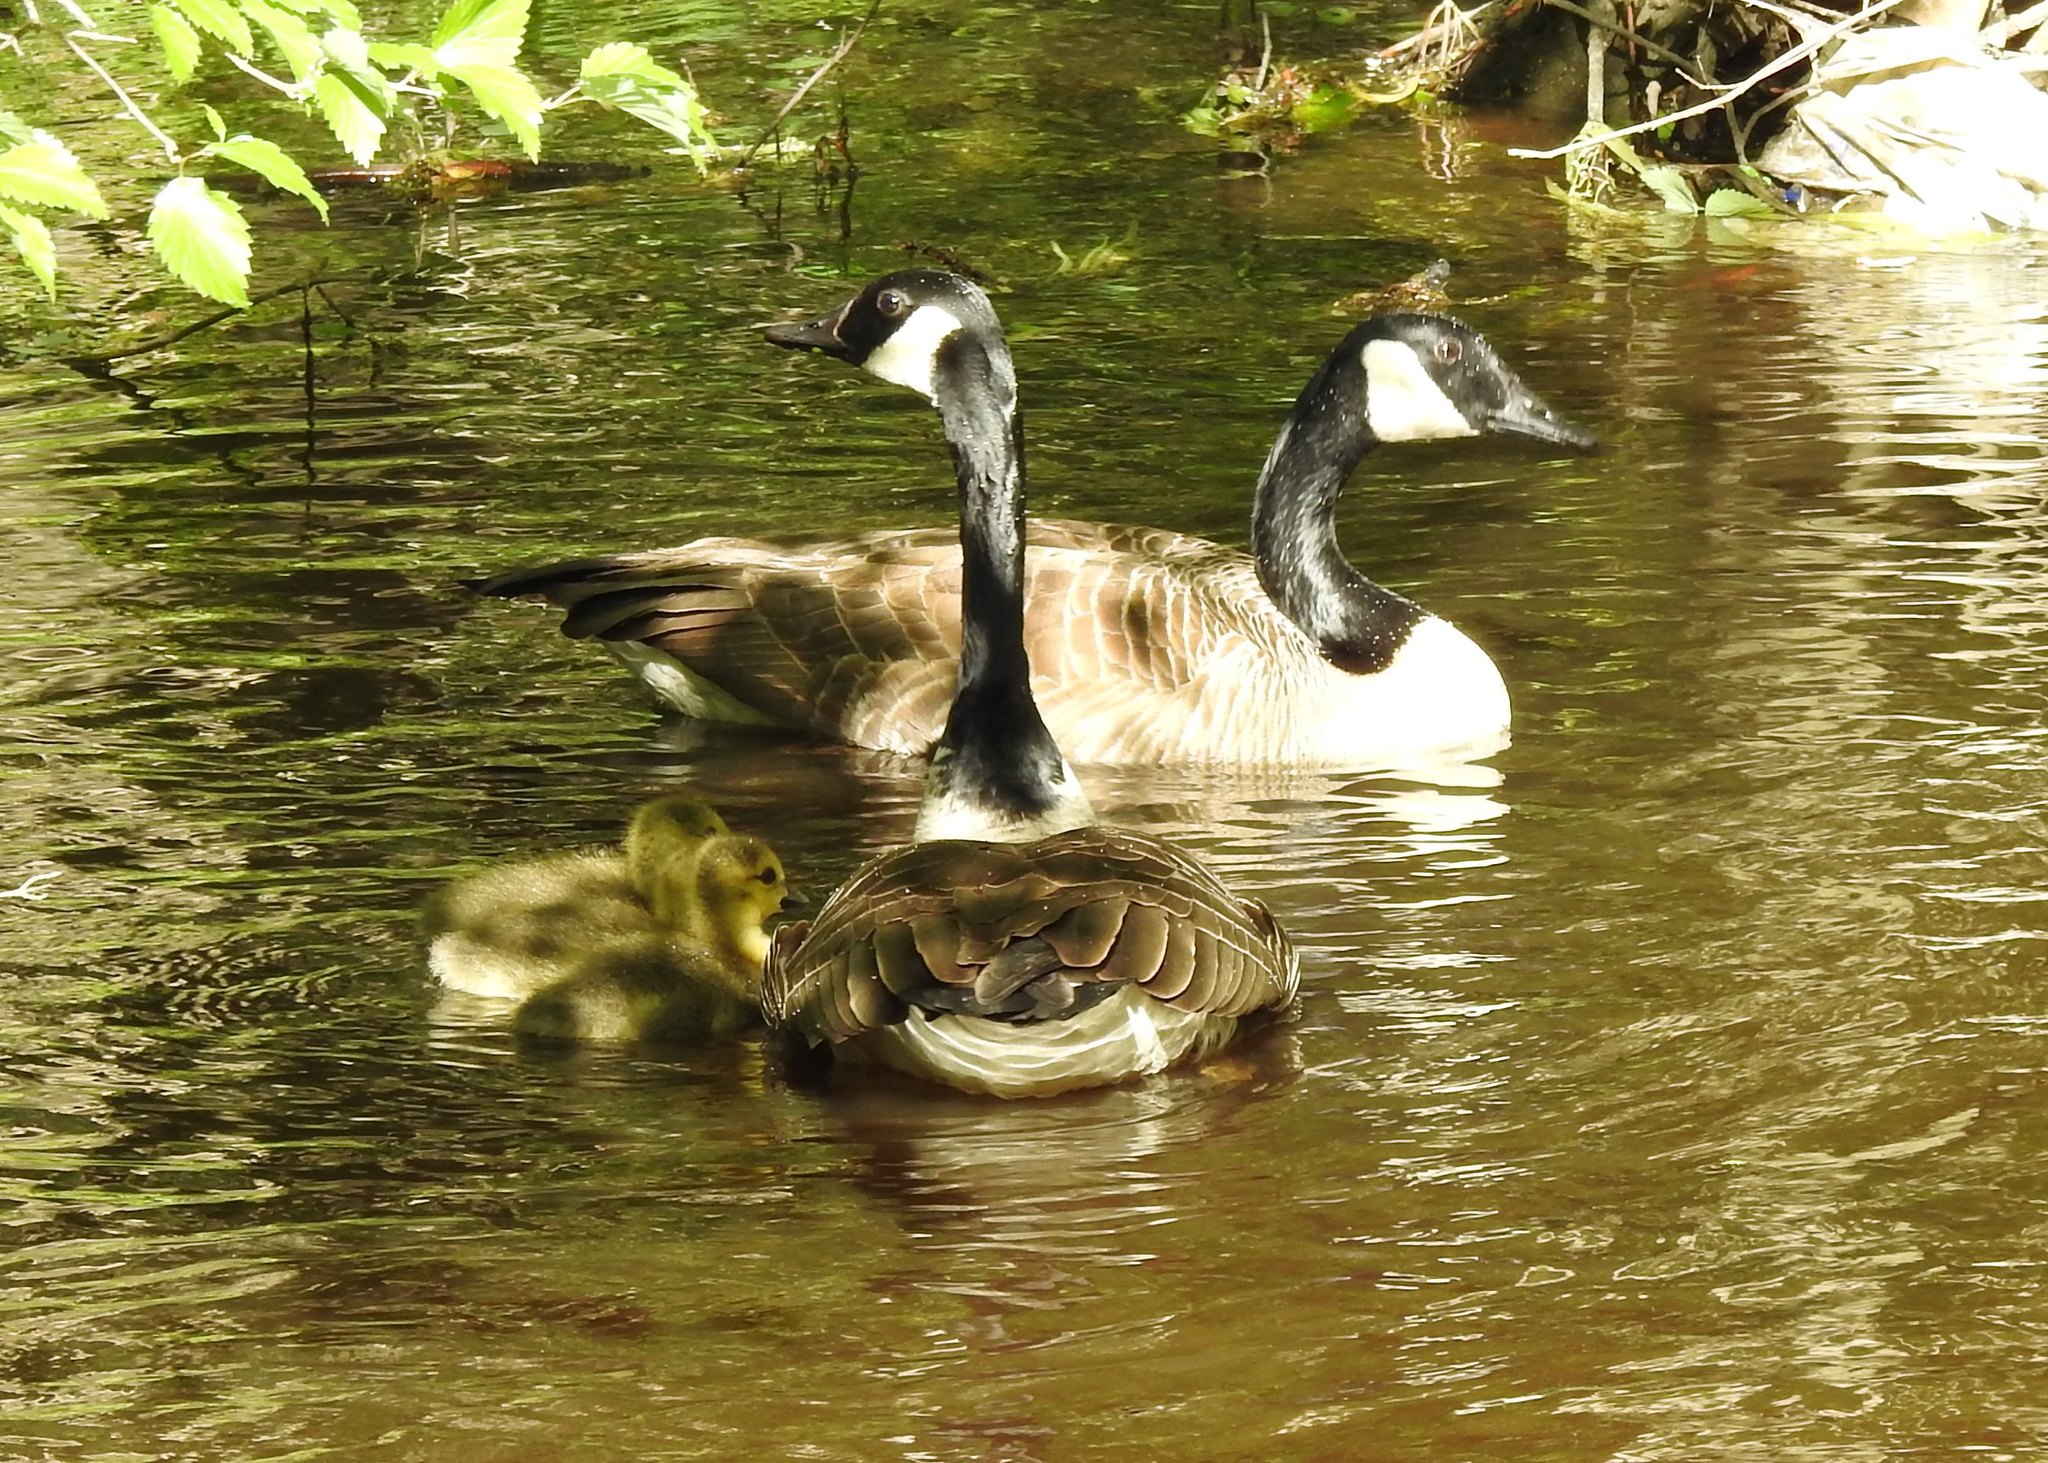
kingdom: Animalia
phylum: Chordata
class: Aves
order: Anseriformes
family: Anatidae
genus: Branta
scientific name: Branta canadensis
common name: Canada goose
